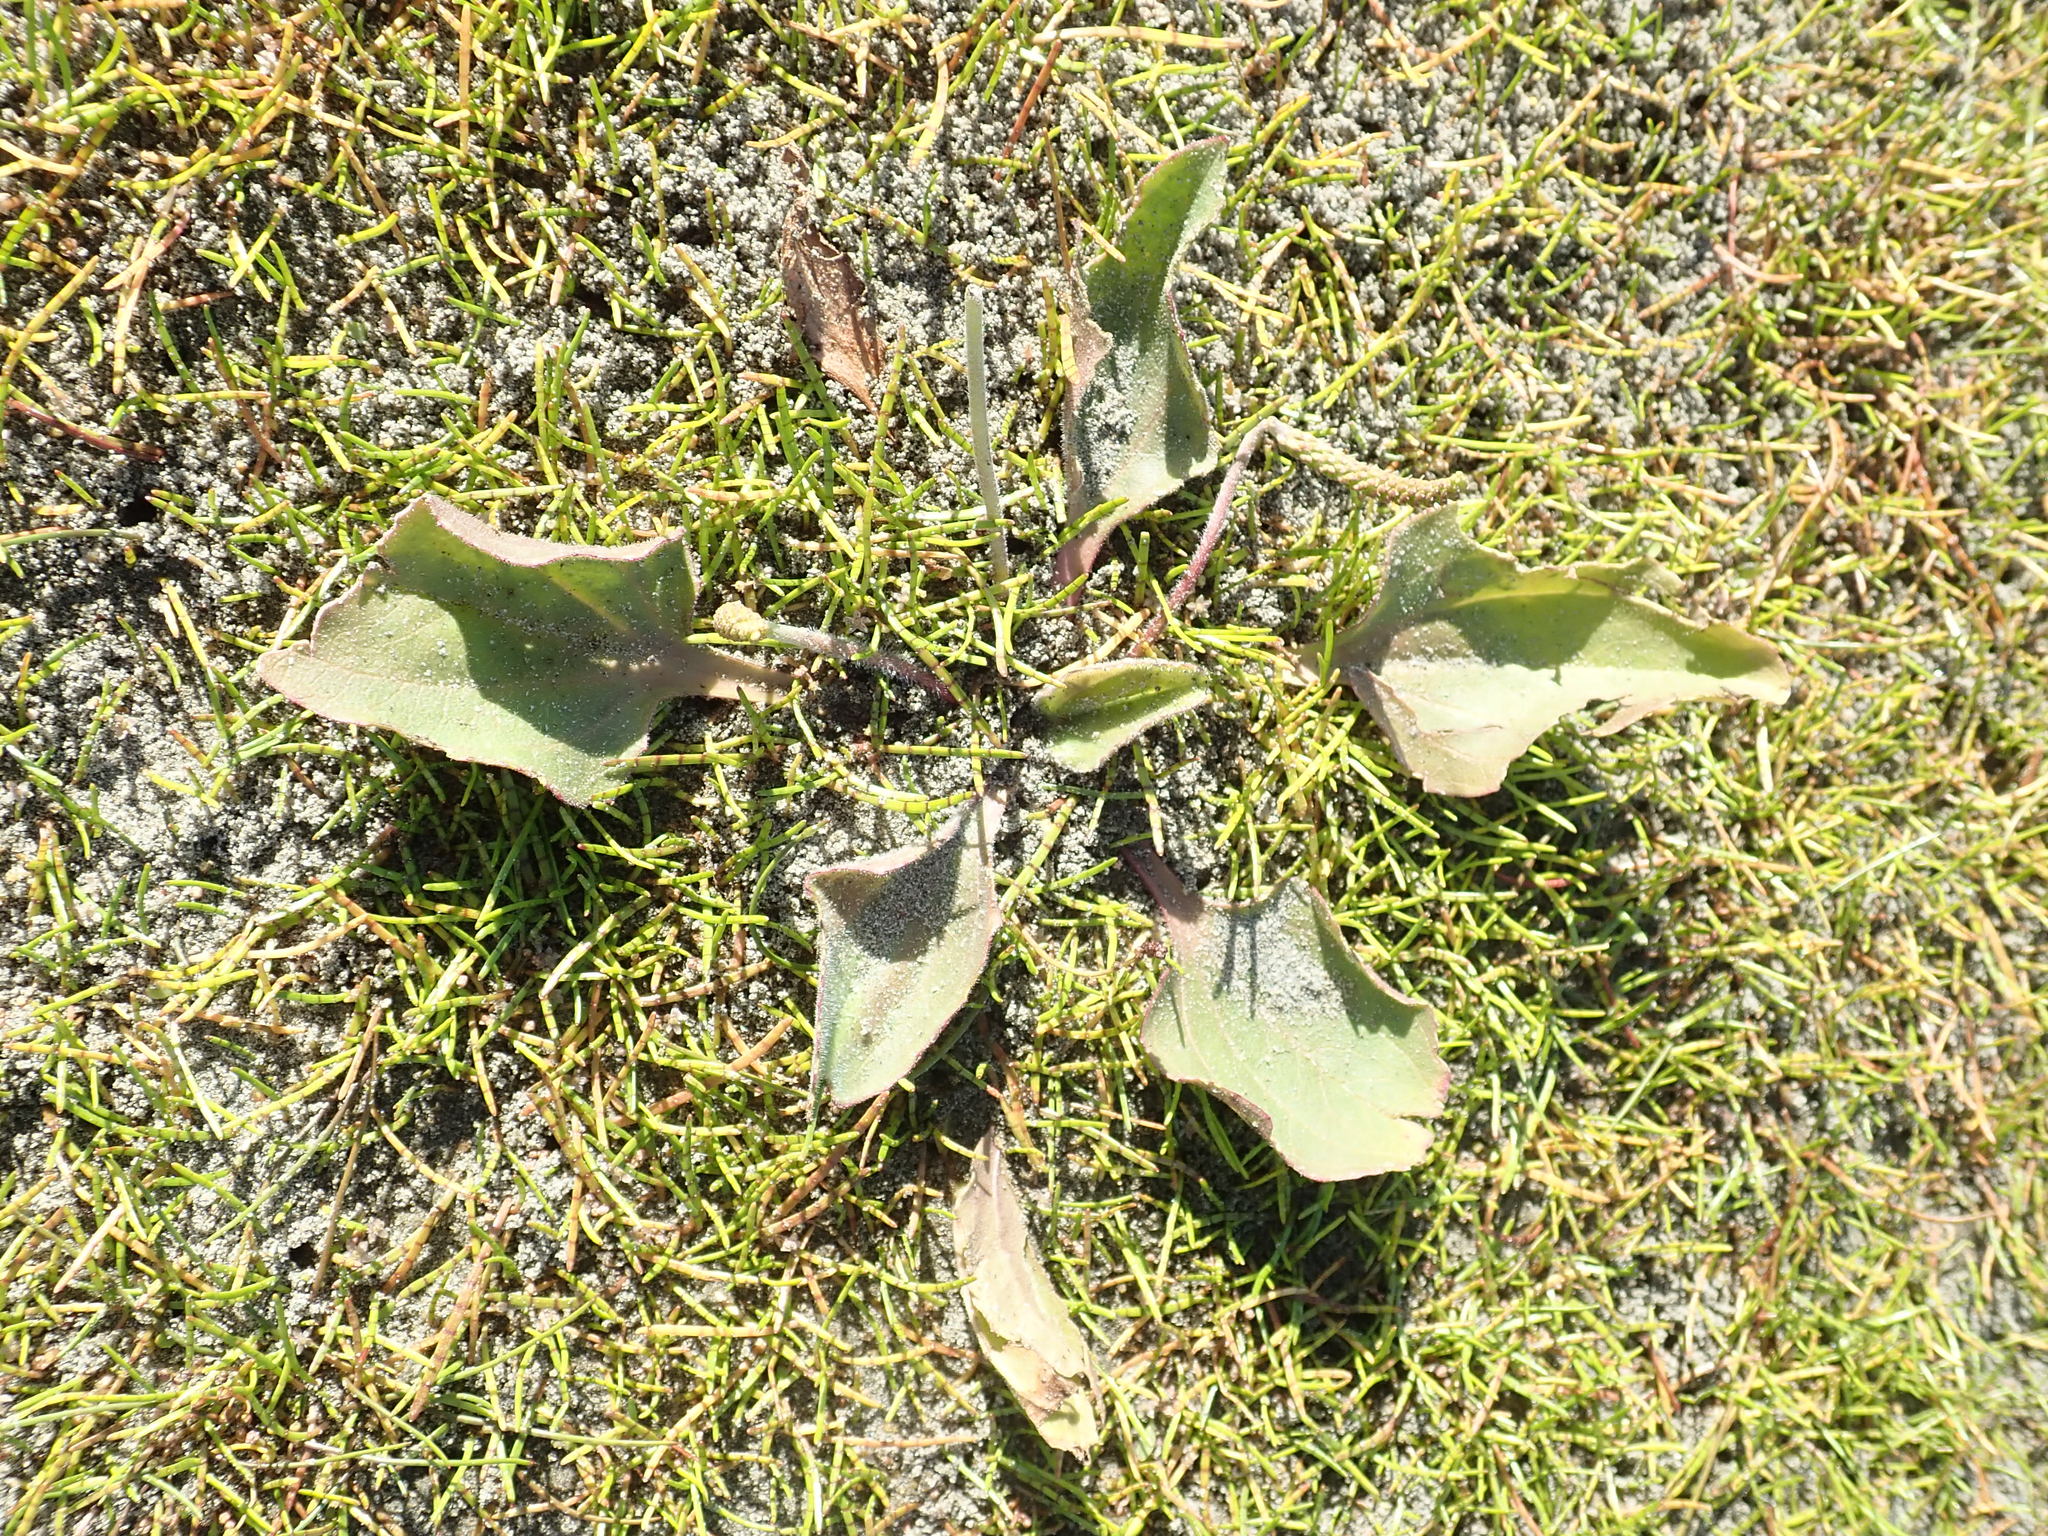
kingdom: Plantae
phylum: Tracheophyta
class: Magnoliopsida
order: Lamiales
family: Plantaginaceae
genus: Plantago
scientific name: Plantago major
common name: Common plantain
